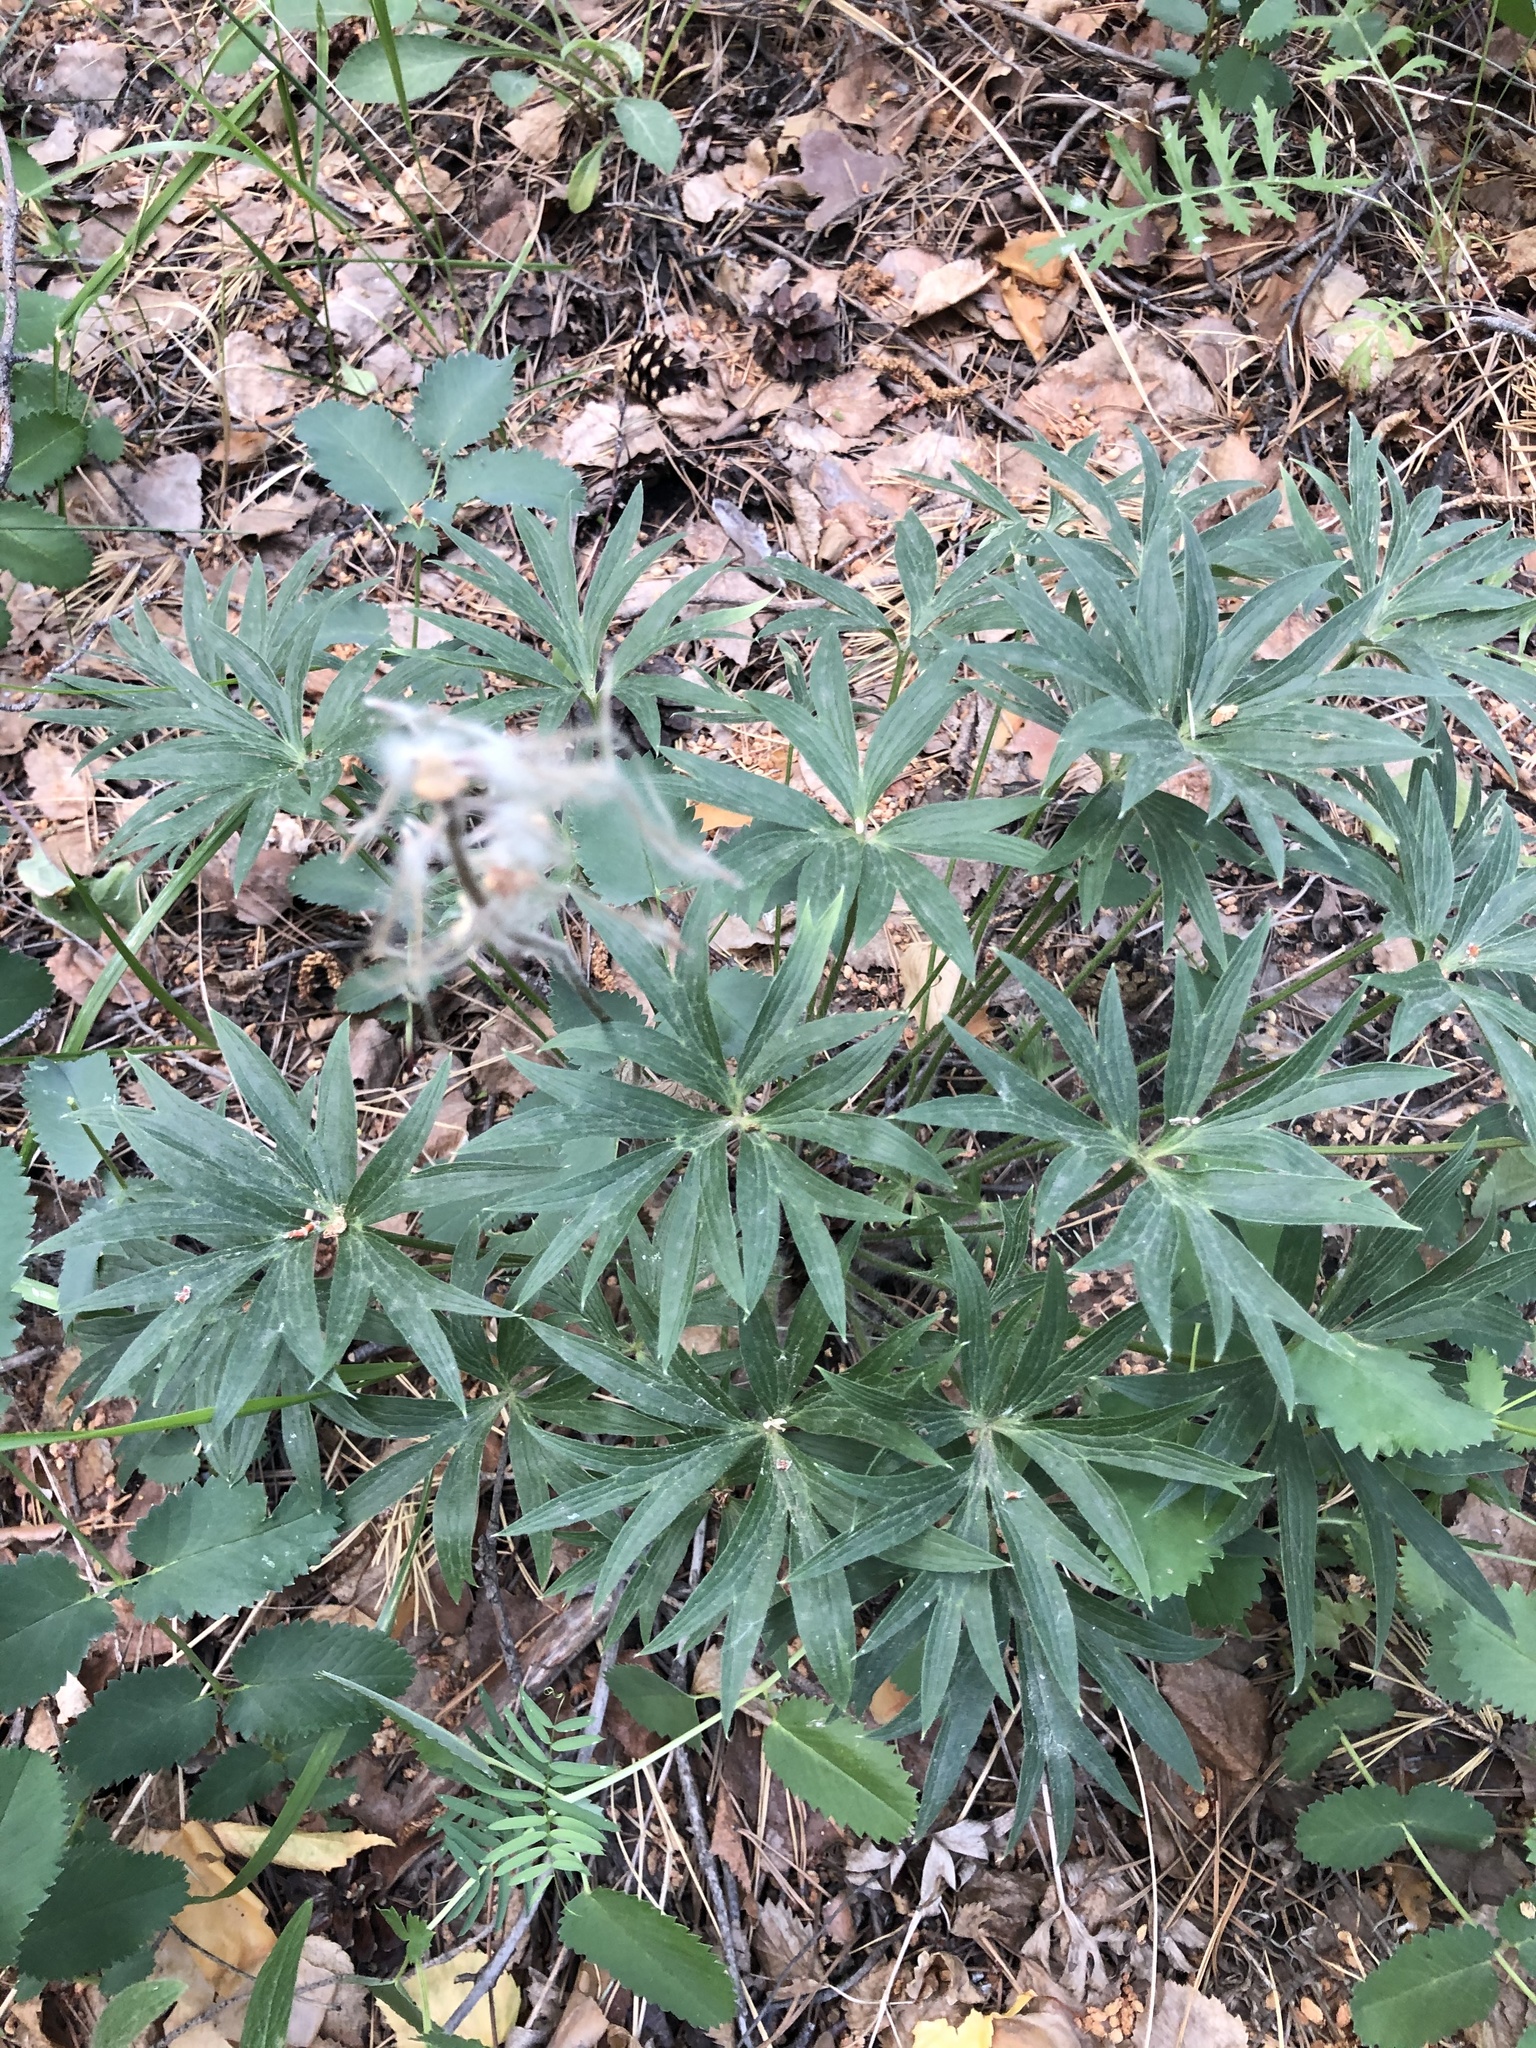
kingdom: Plantae
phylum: Tracheophyta
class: Magnoliopsida
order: Ranunculales
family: Ranunculaceae
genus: Pulsatilla
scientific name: Pulsatilla patens
